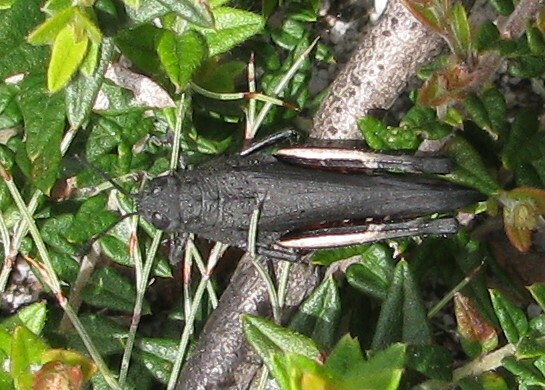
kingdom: Animalia
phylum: Arthropoda
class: Insecta
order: Orthoptera
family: Acrididae
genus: Cirphula
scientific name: Cirphula pyrrhocnemis
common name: Variable cirphula
